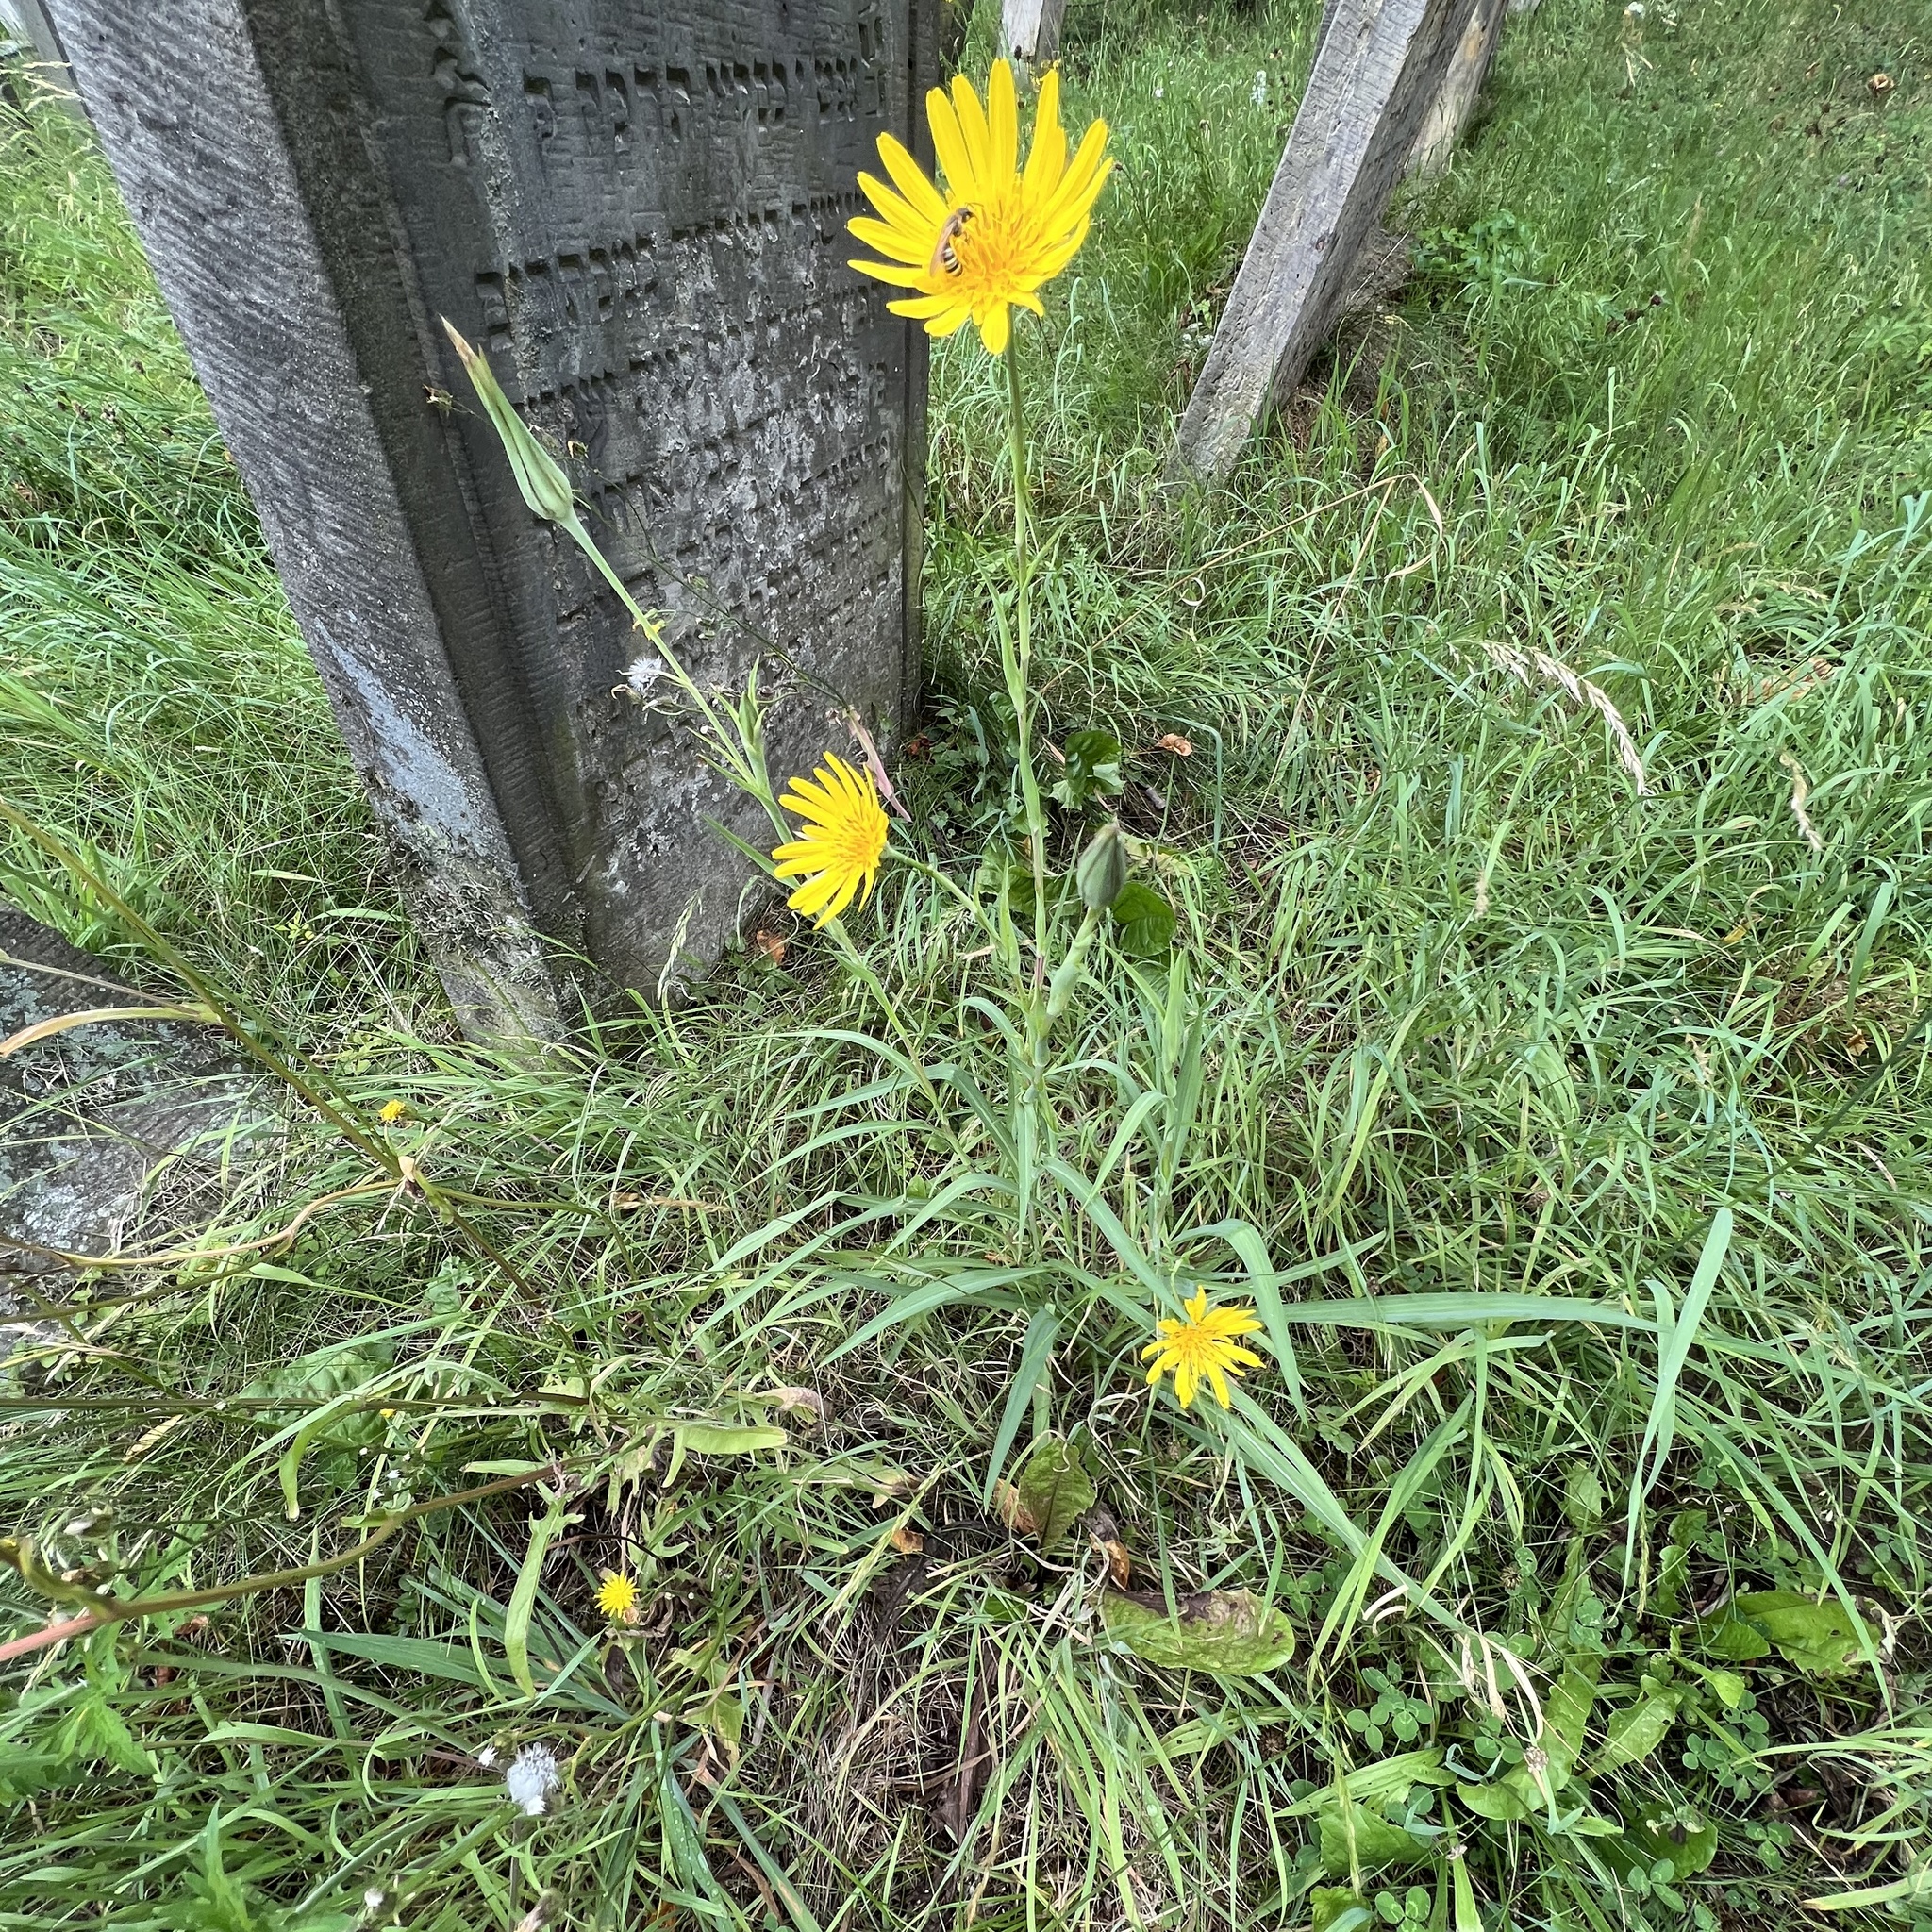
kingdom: Plantae
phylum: Tracheophyta
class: Magnoliopsida
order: Asterales
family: Asteraceae
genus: Tragopogon
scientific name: Tragopogon orientalis
